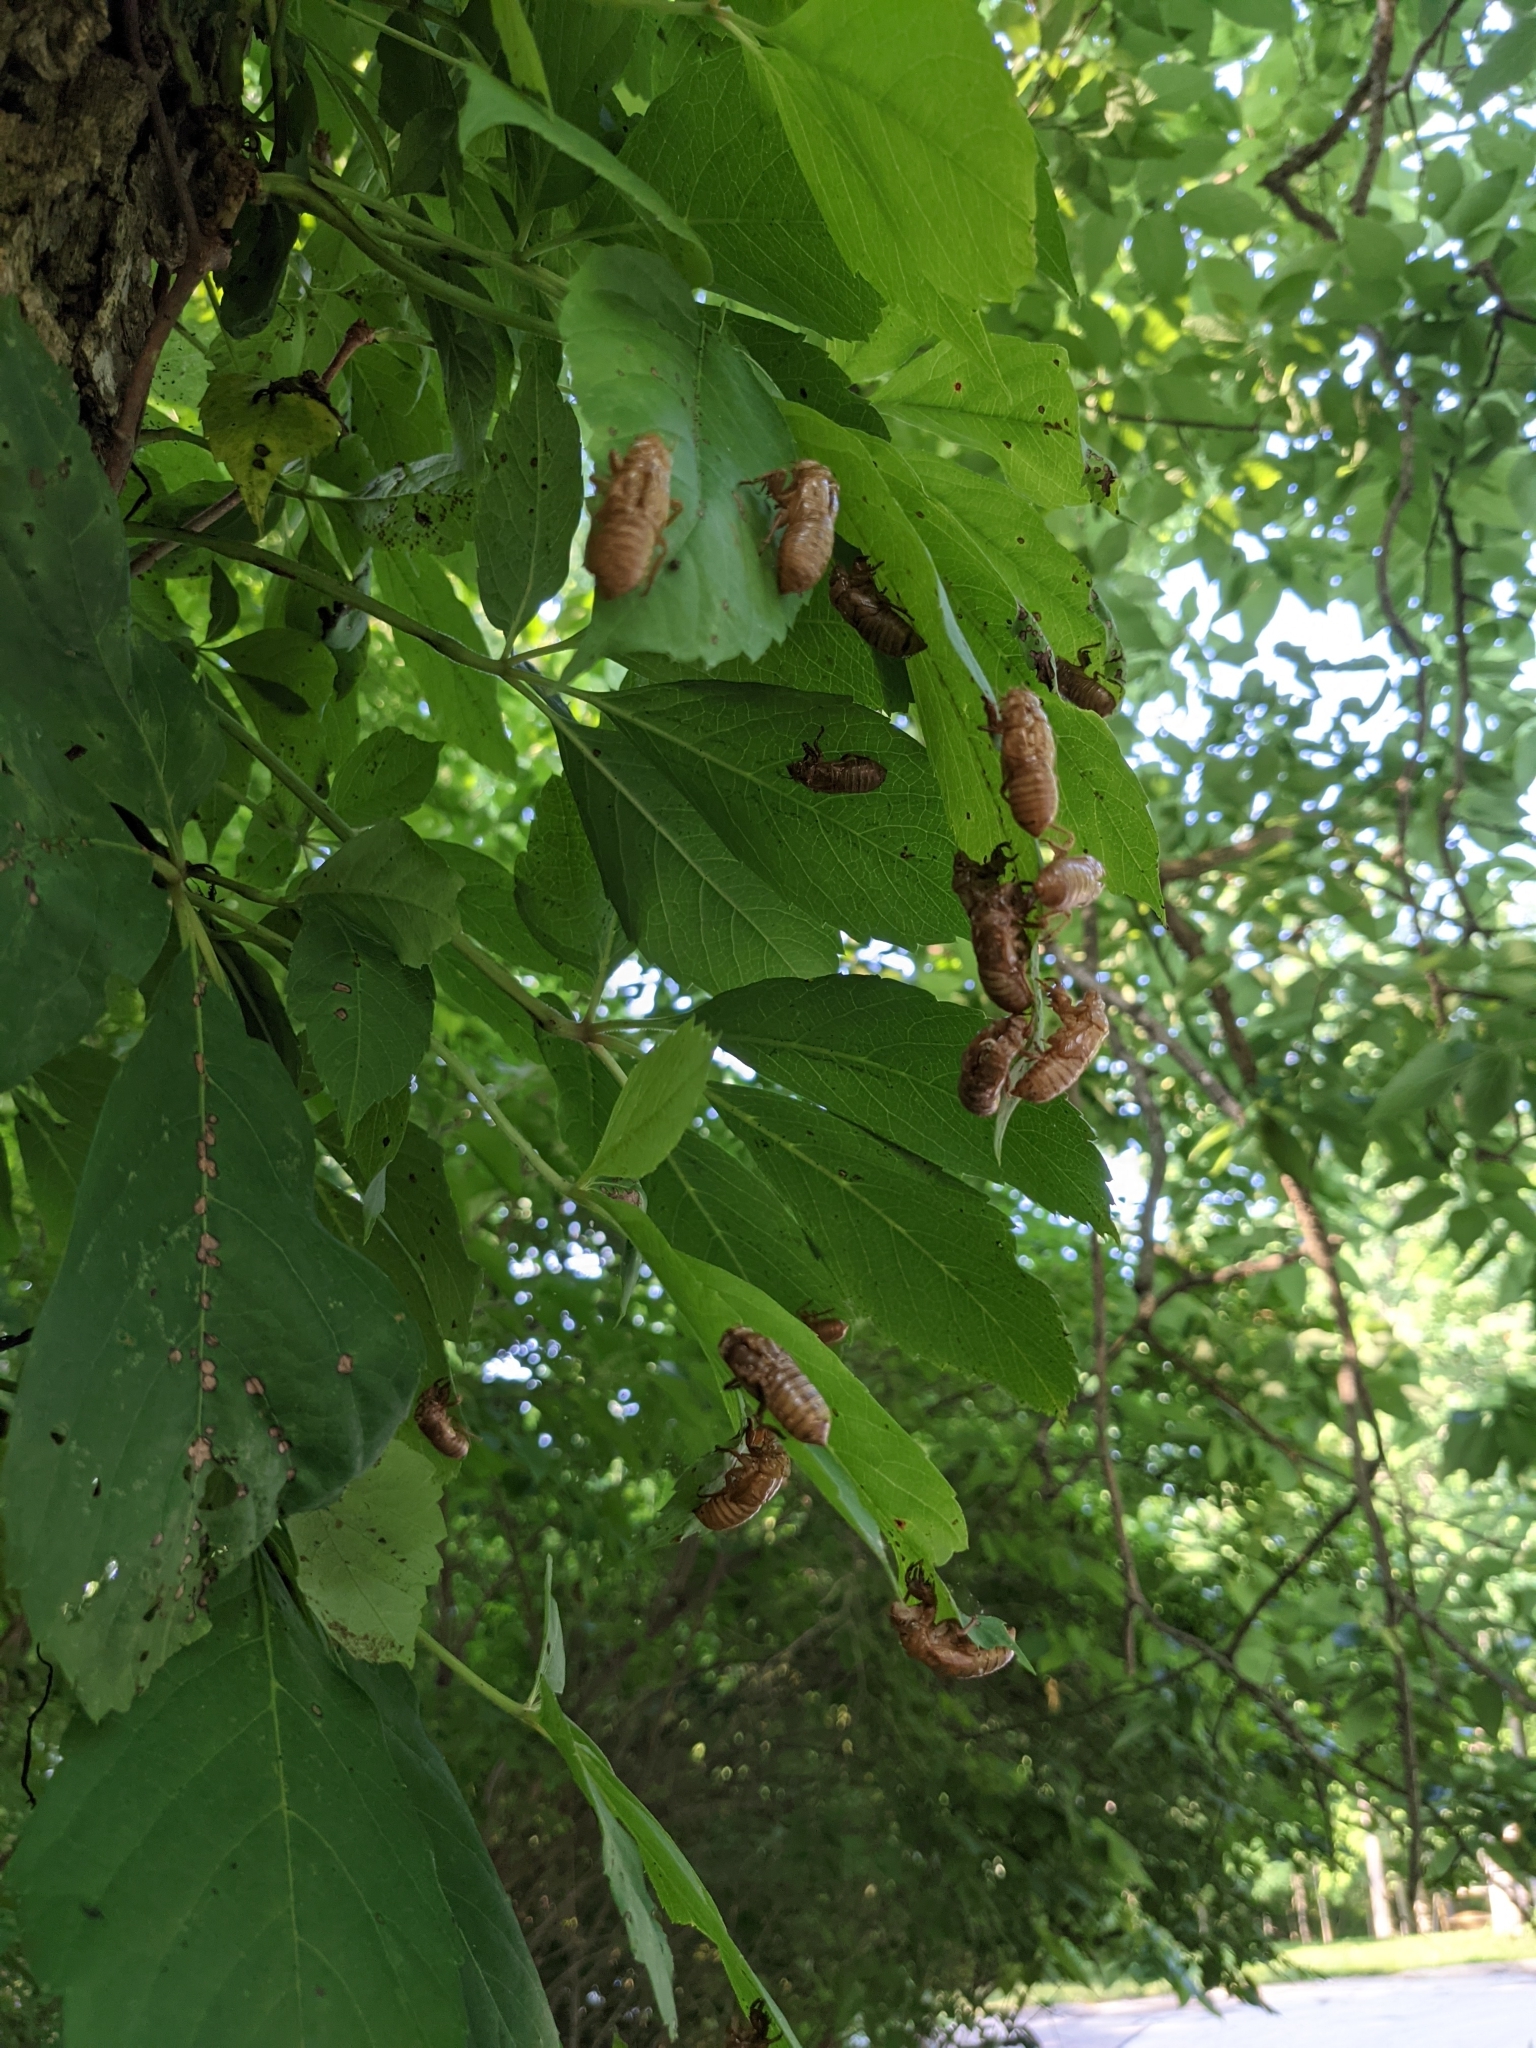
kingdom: Animalia
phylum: Arthropoda
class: Insecta
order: Hemiptera
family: Cicadidae
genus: Magicicada
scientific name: Magicicada
